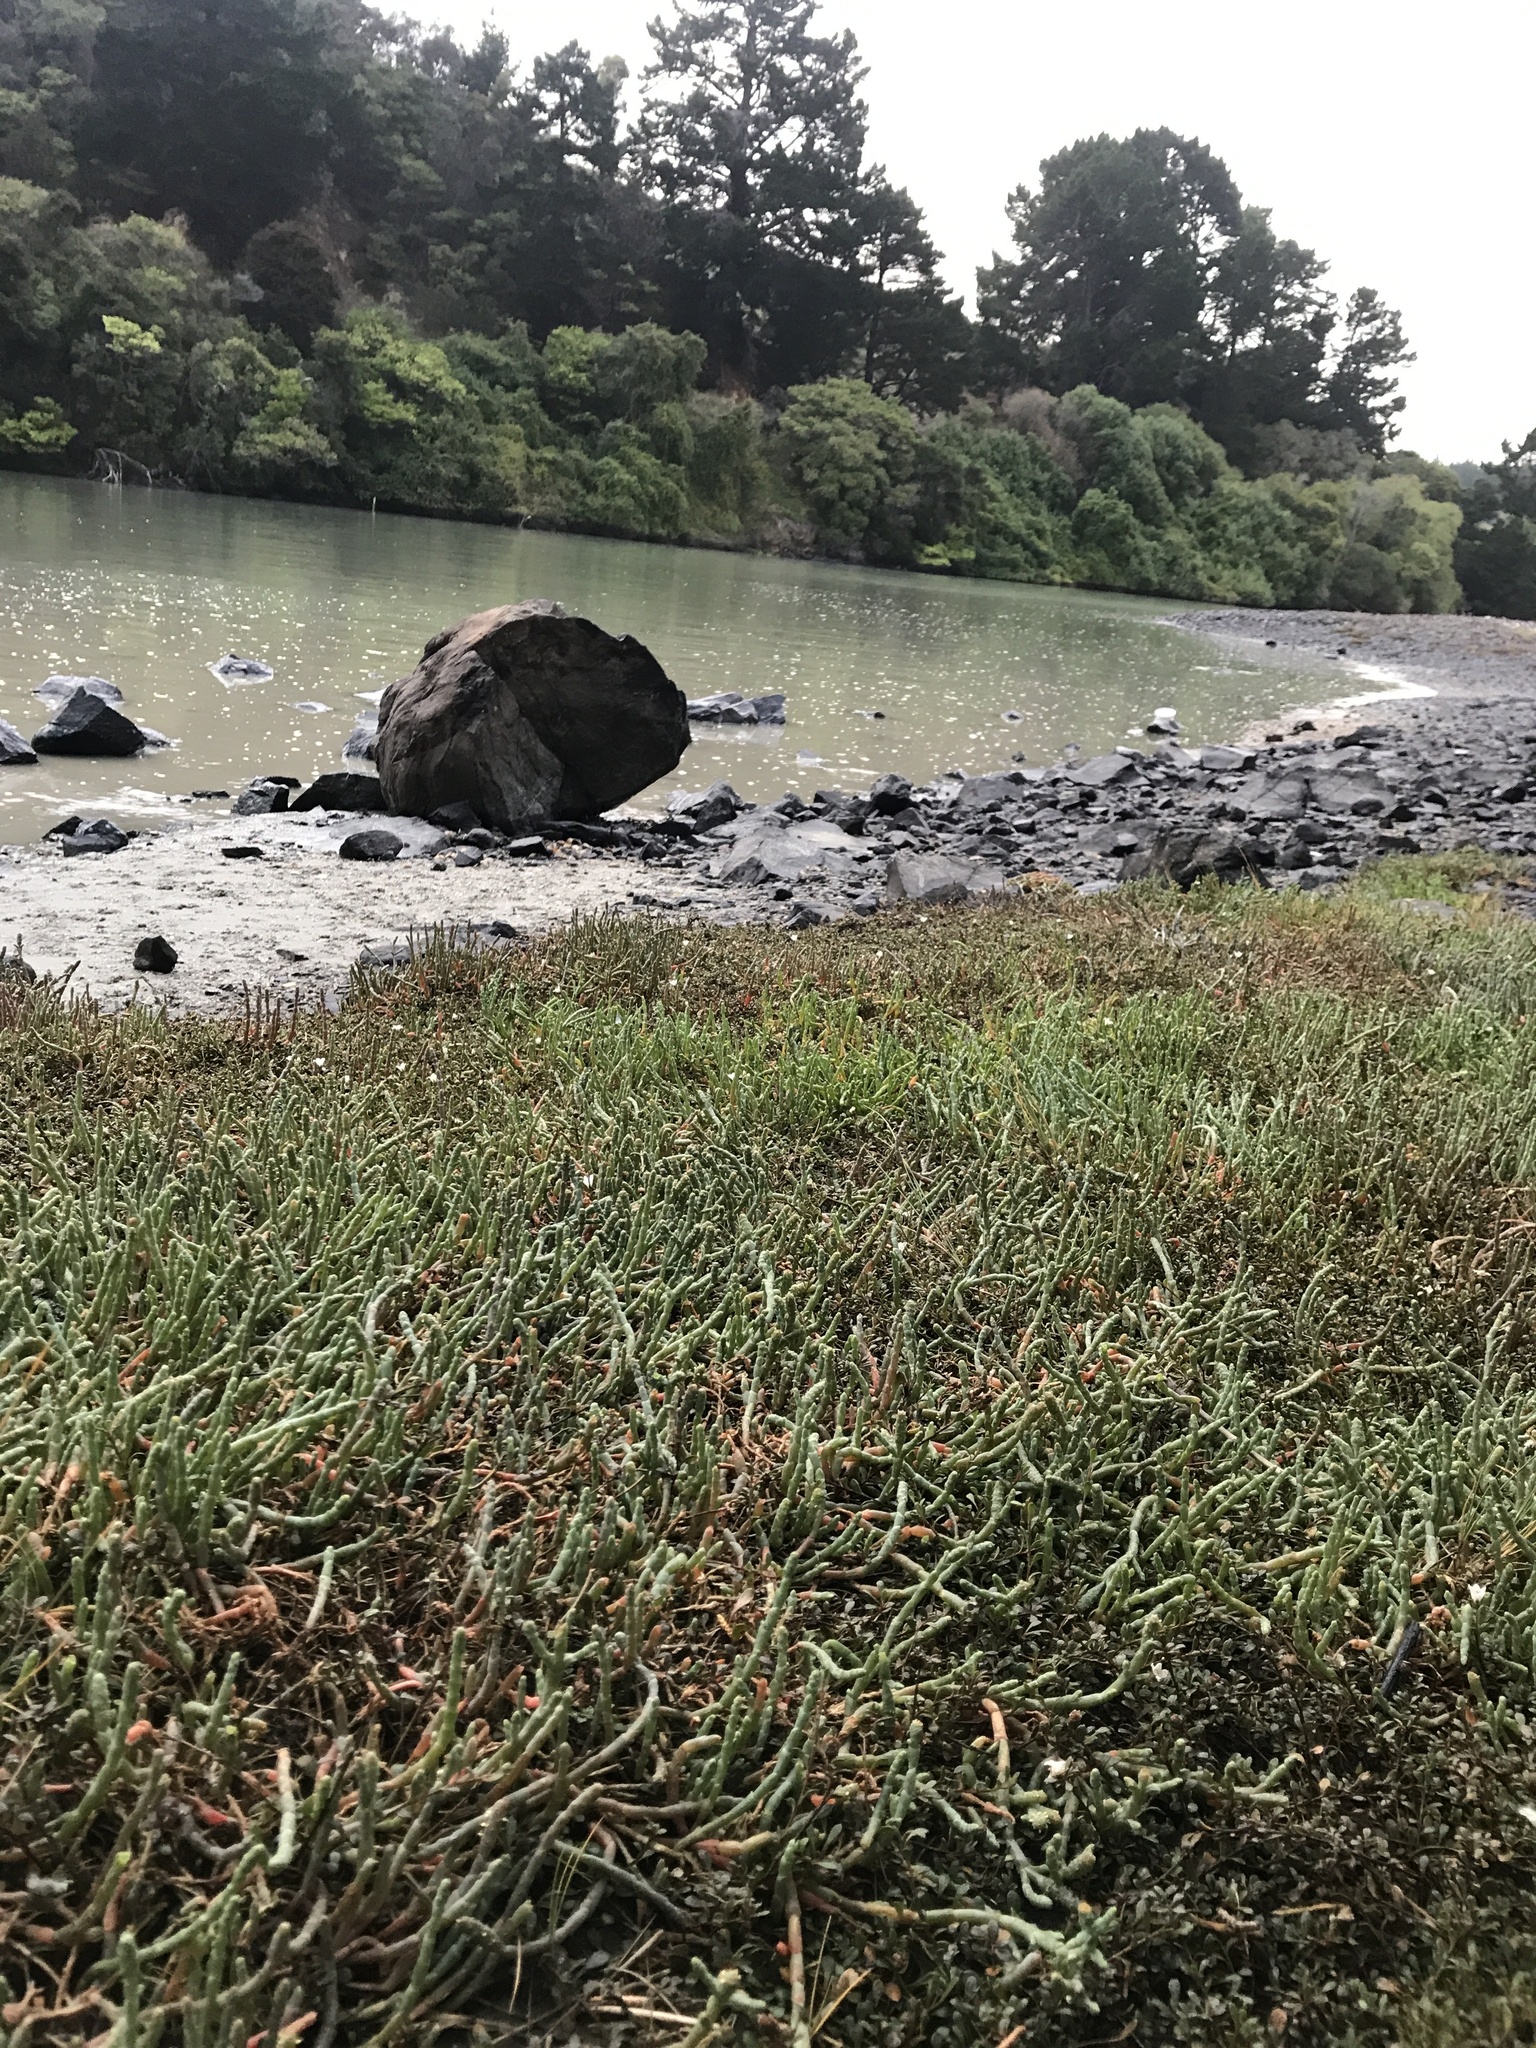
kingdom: Plantae
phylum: Tracheophyta
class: Magnoliopsida
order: Caryophyllales
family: Amaranthaceae
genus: Salicornia
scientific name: Salicornia quinqueflora
